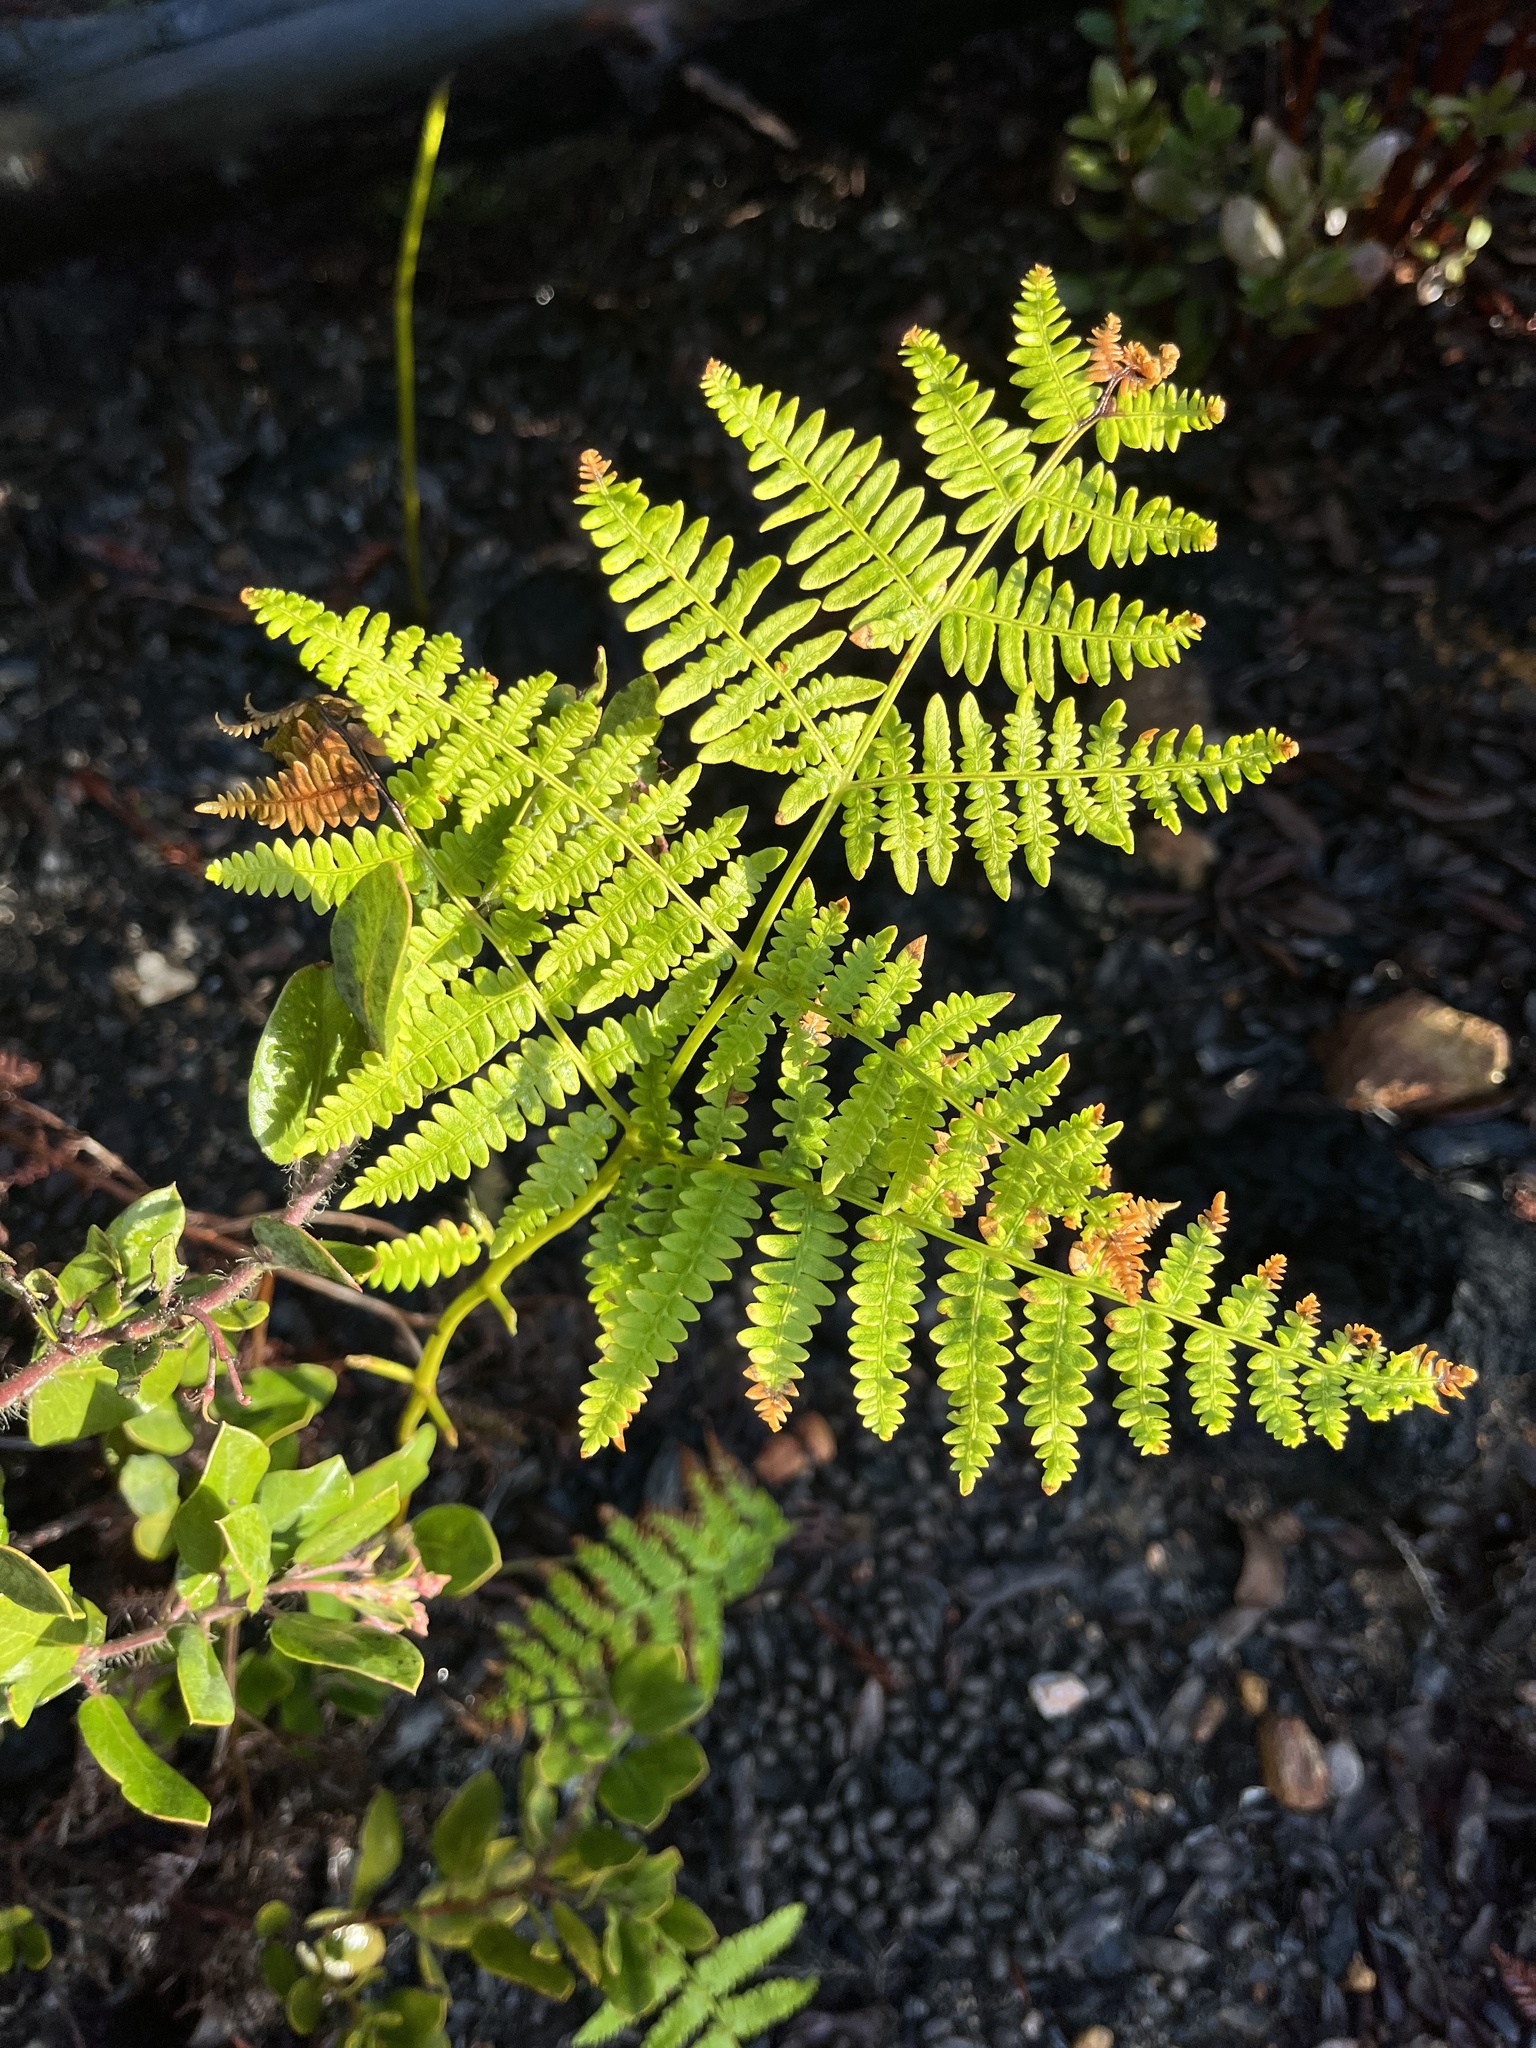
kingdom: Plantae
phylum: Tracheophyta
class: Polypodiopsida
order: Polypodiales
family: Dennstaedtiaceae
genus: Pteridium
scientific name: Pteridium aquilinum
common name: Bracken
